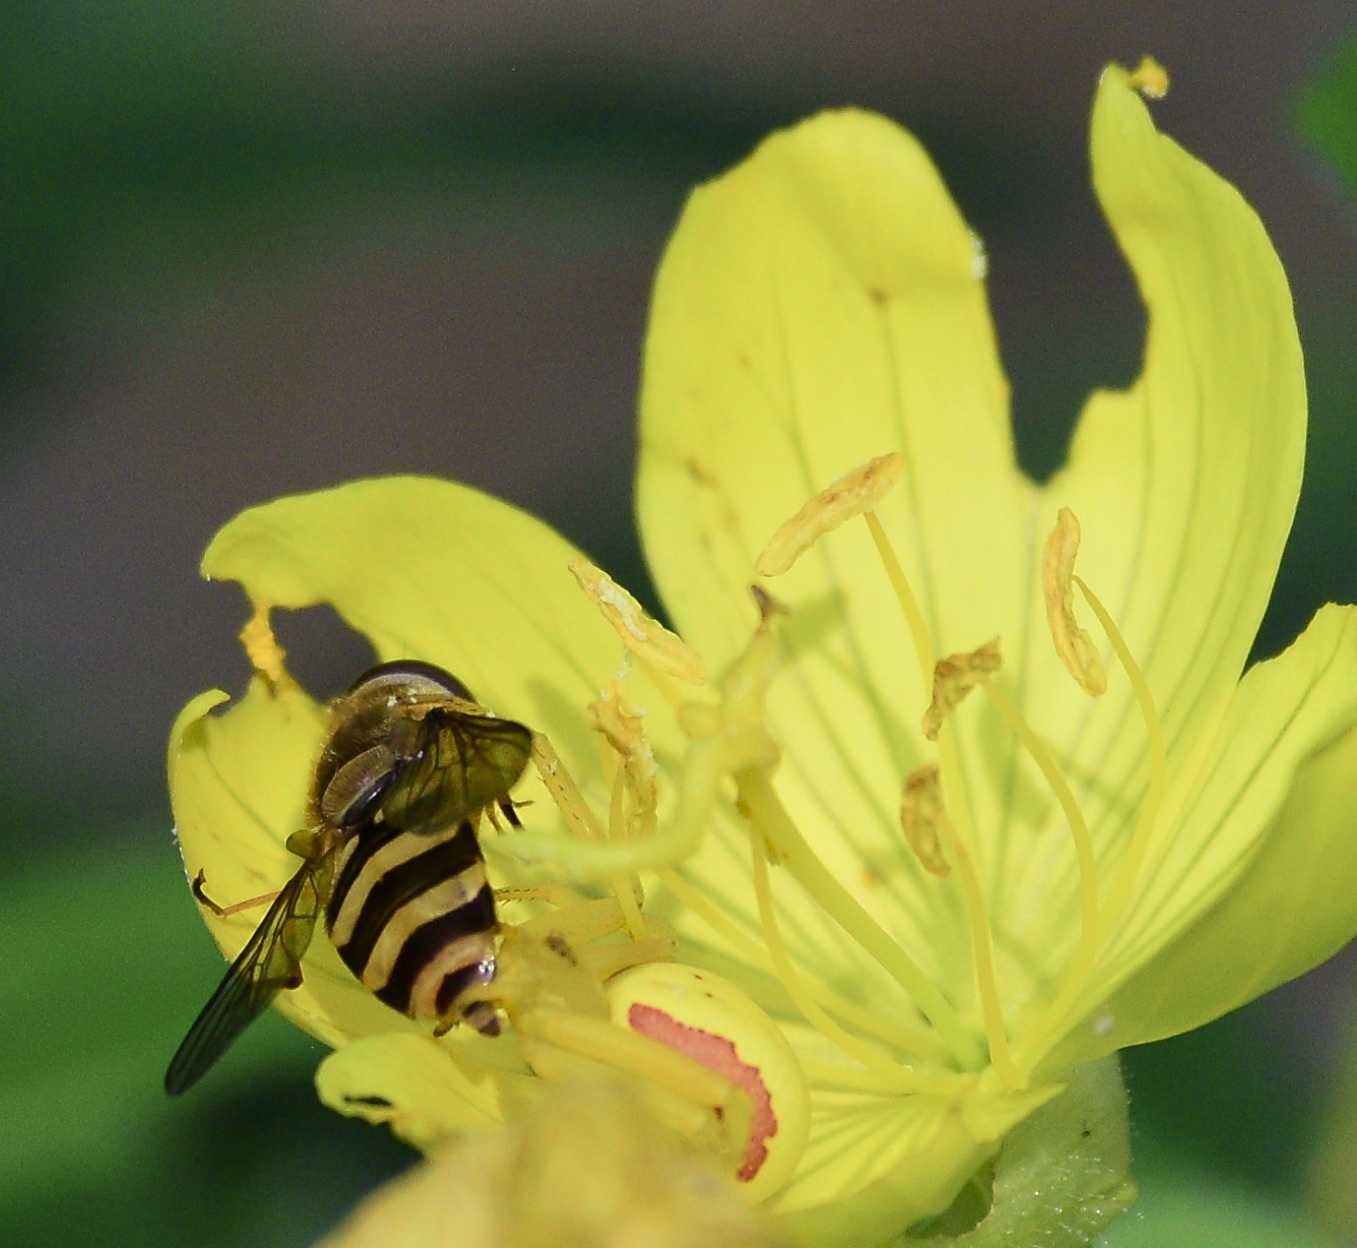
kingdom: Animalia
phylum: Arthropoda
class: Insecta
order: Diptera
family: Syrphidae
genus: Syrphus
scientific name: Syrphus
